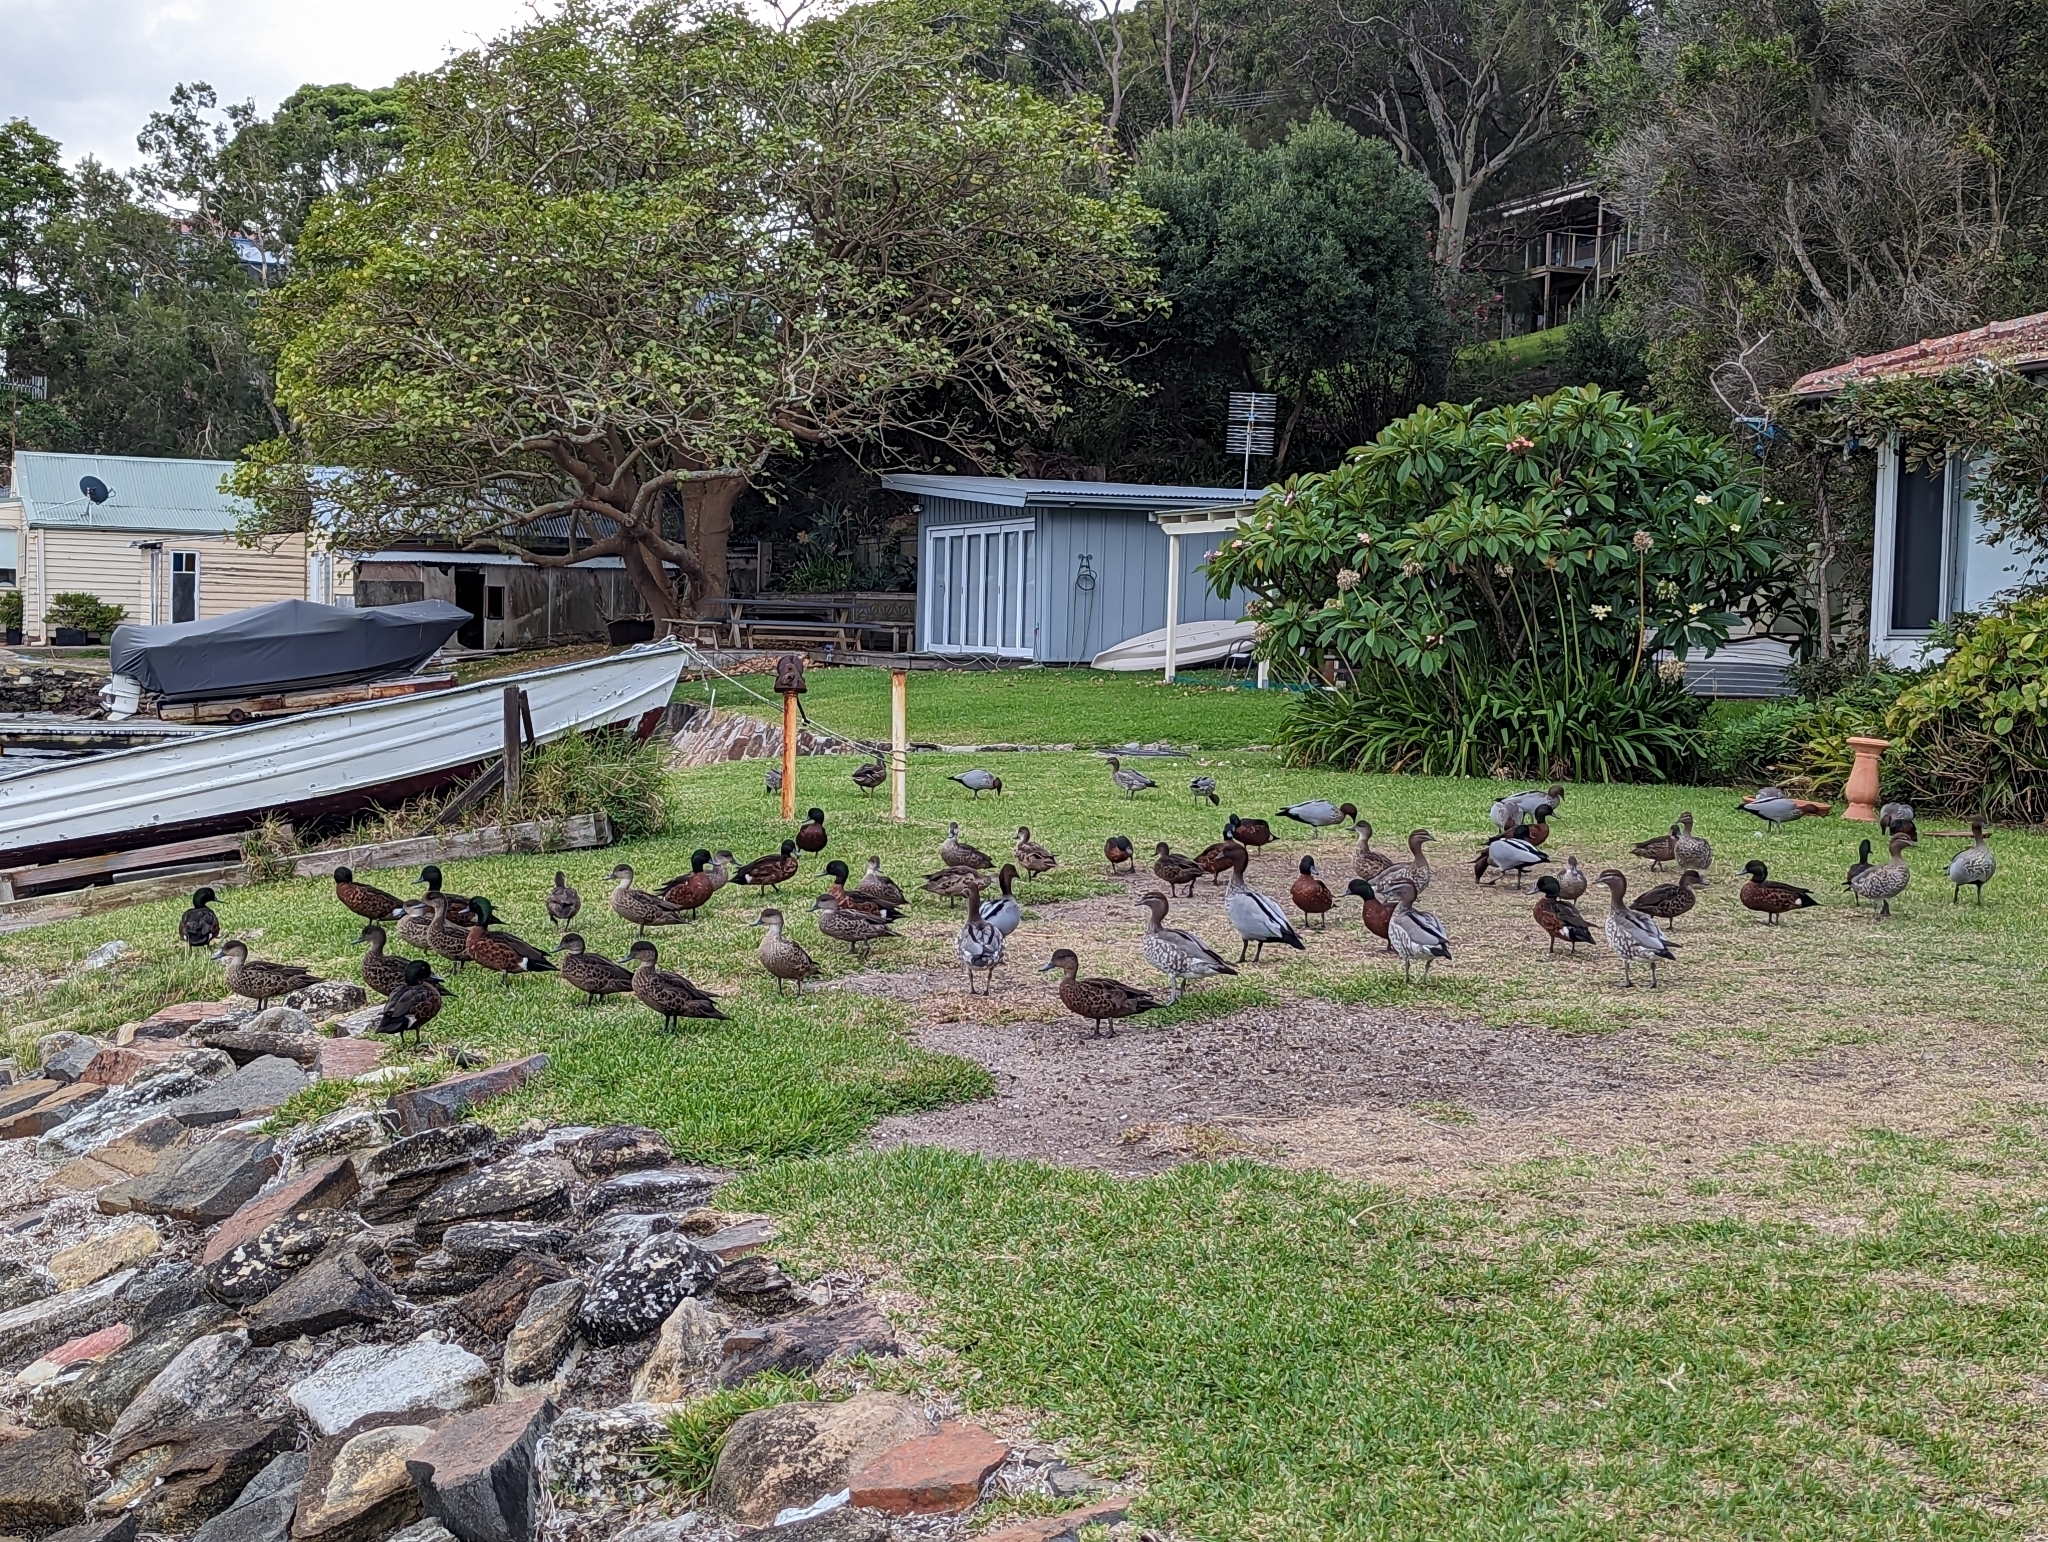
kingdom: Animalia
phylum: Chordata
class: Aves
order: Anseriformes
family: Anatidae
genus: Anas
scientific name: Anas castanea
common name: Chestnut teal
